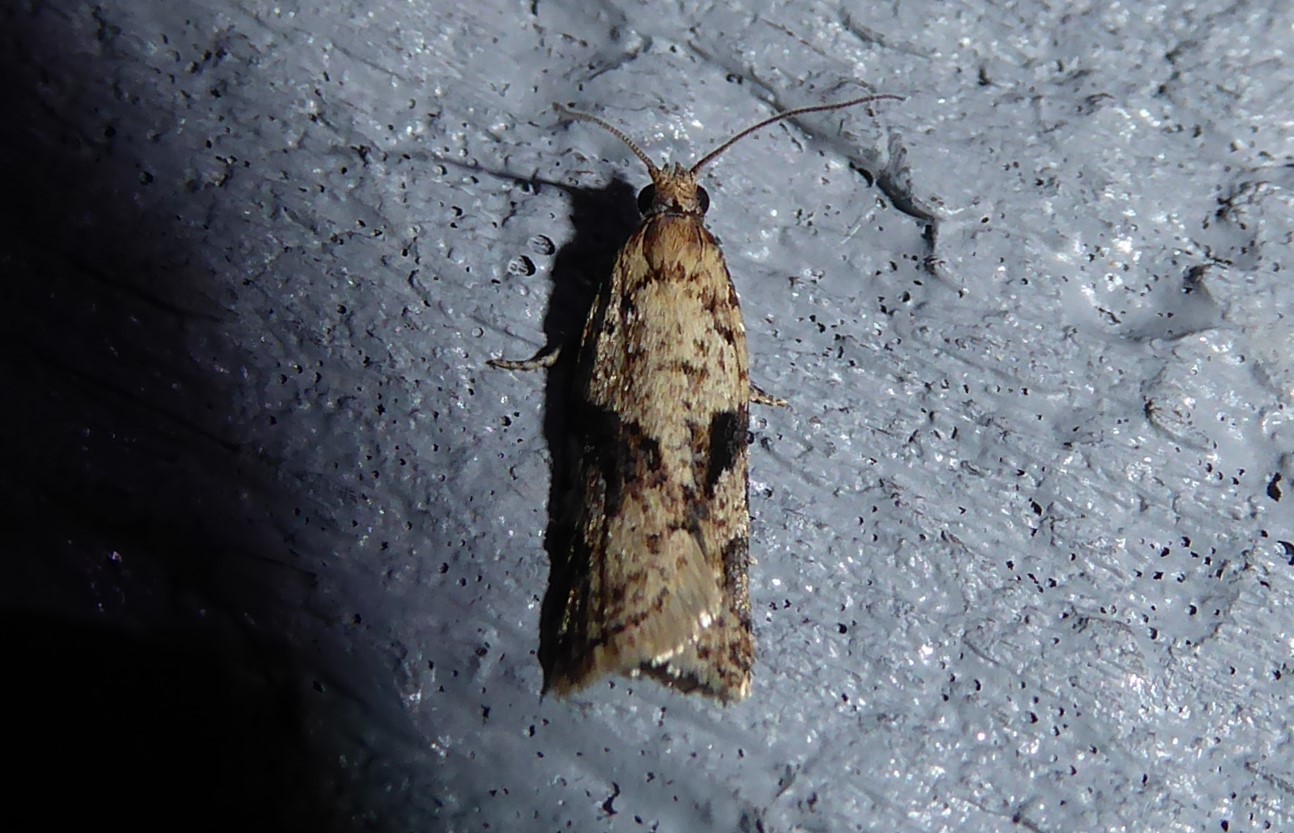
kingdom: Animalia
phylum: Arthropoda
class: Insecta
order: Lepidoptera
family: Tortricidae
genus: Capua
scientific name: Capua semiferana
